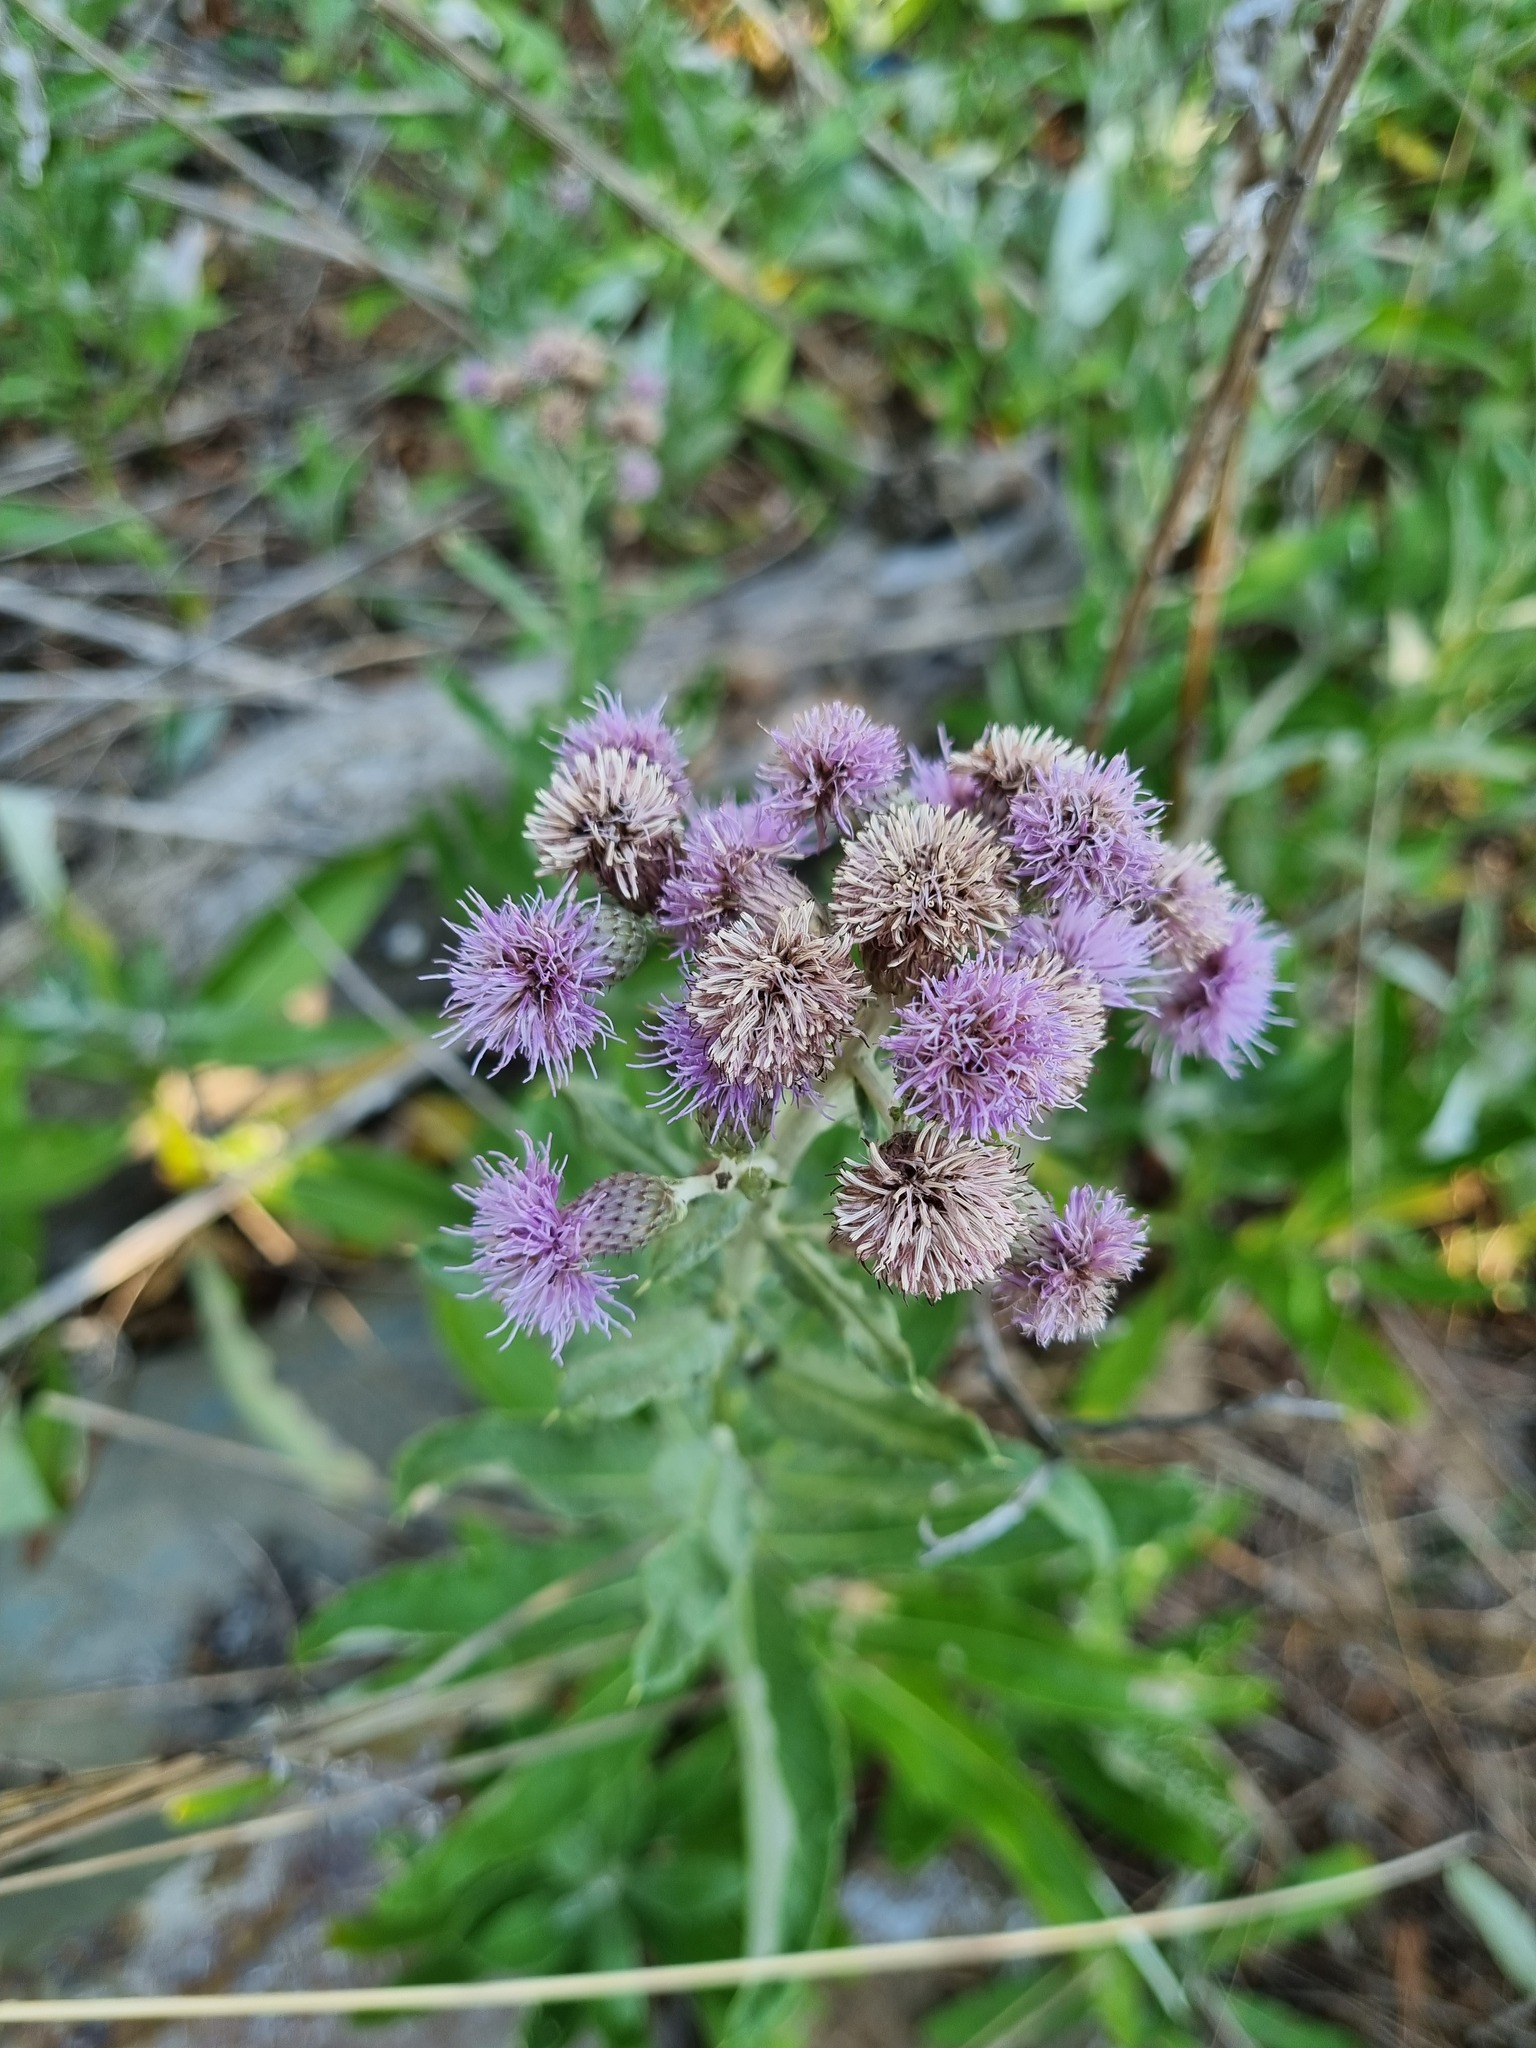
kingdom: Plantae
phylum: Tracheophyta
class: Magnoliopsida
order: Asterales
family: Asteraceae
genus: Cirsium
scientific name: Cirsium arvense
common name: Creeping thistle
